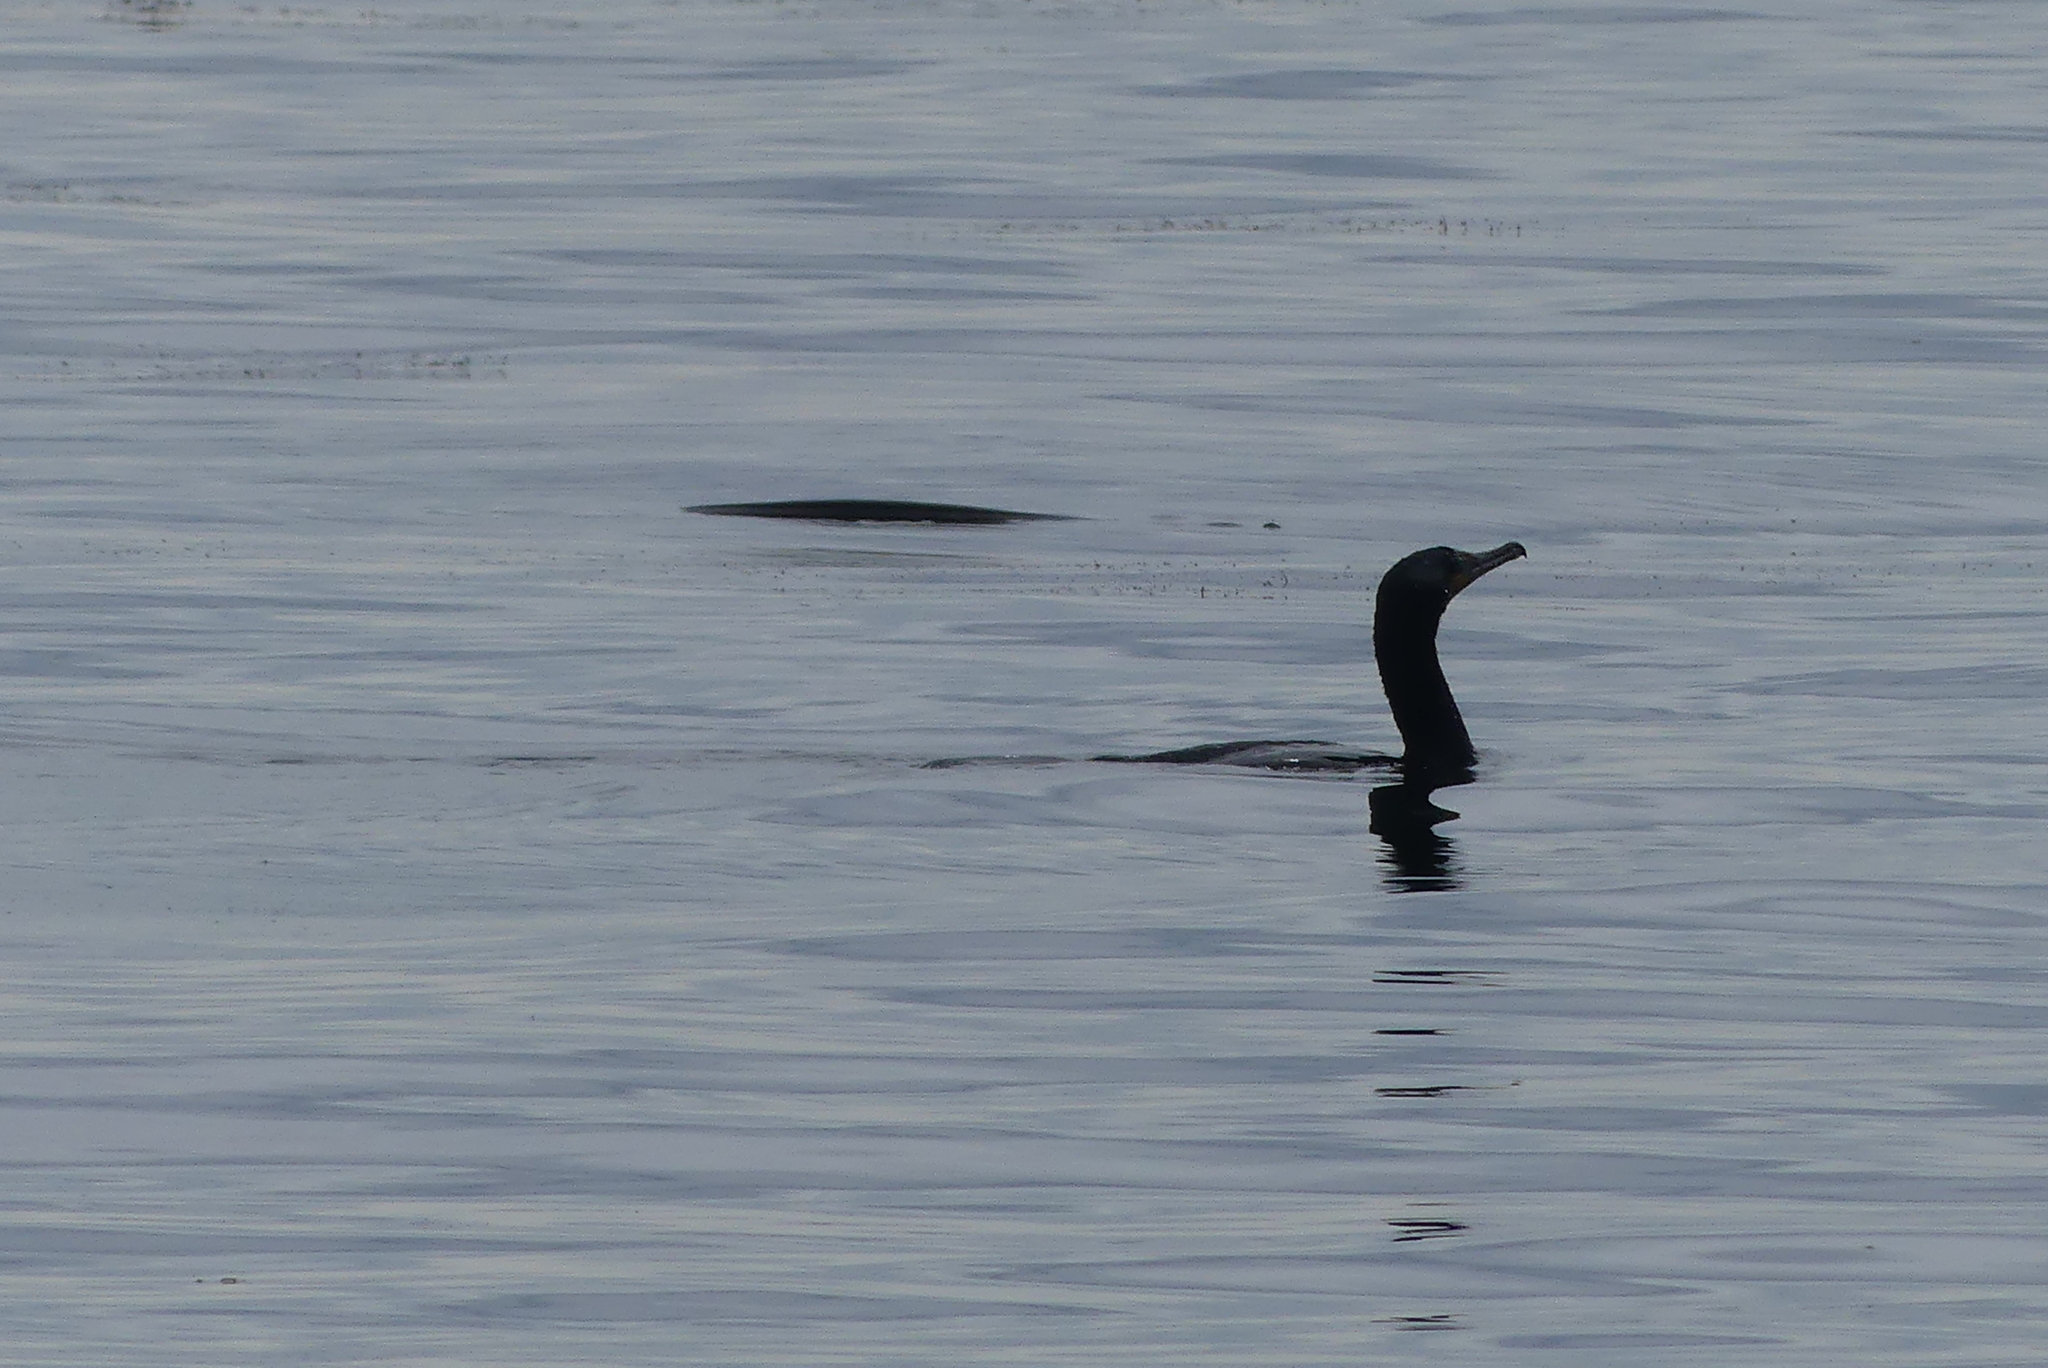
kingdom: Animalia
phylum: Chordata
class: Aves
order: Suliformes
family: Phalacrocoracidae
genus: Phalacrocorax
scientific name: Phalacrocorax auritus
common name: Double-crested cormorant
